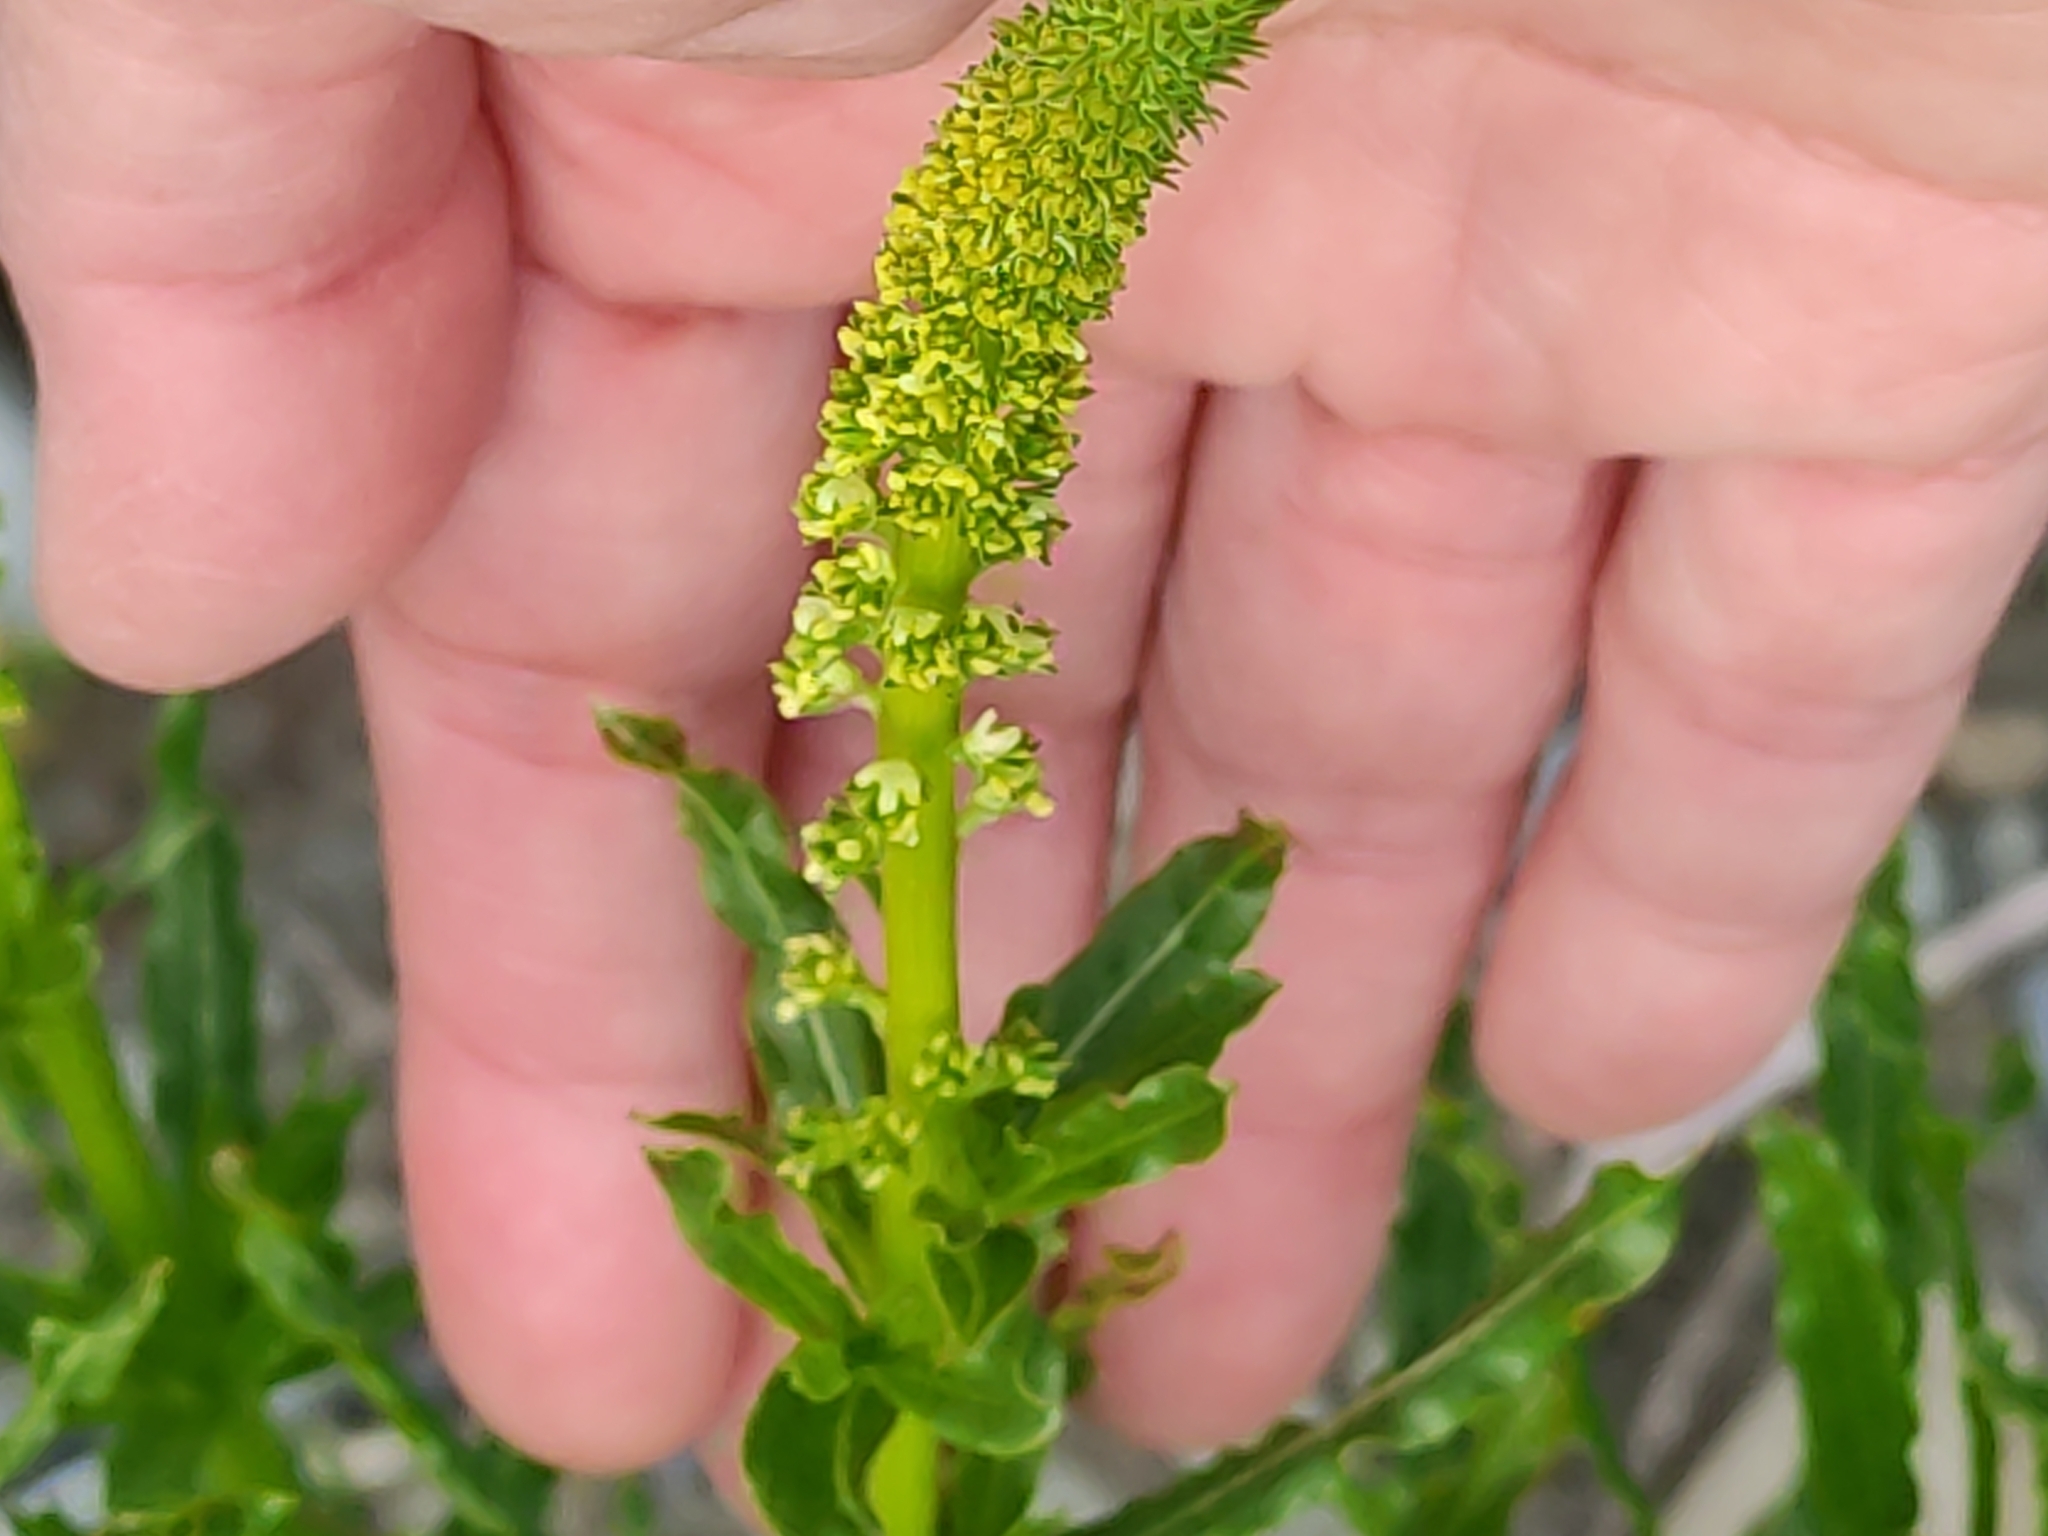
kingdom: Plantae
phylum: Tracheophyta
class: Magnoliopsida
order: Brassicales
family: Resedaceae
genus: Reseda
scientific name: Reseda luteola
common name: Weld
